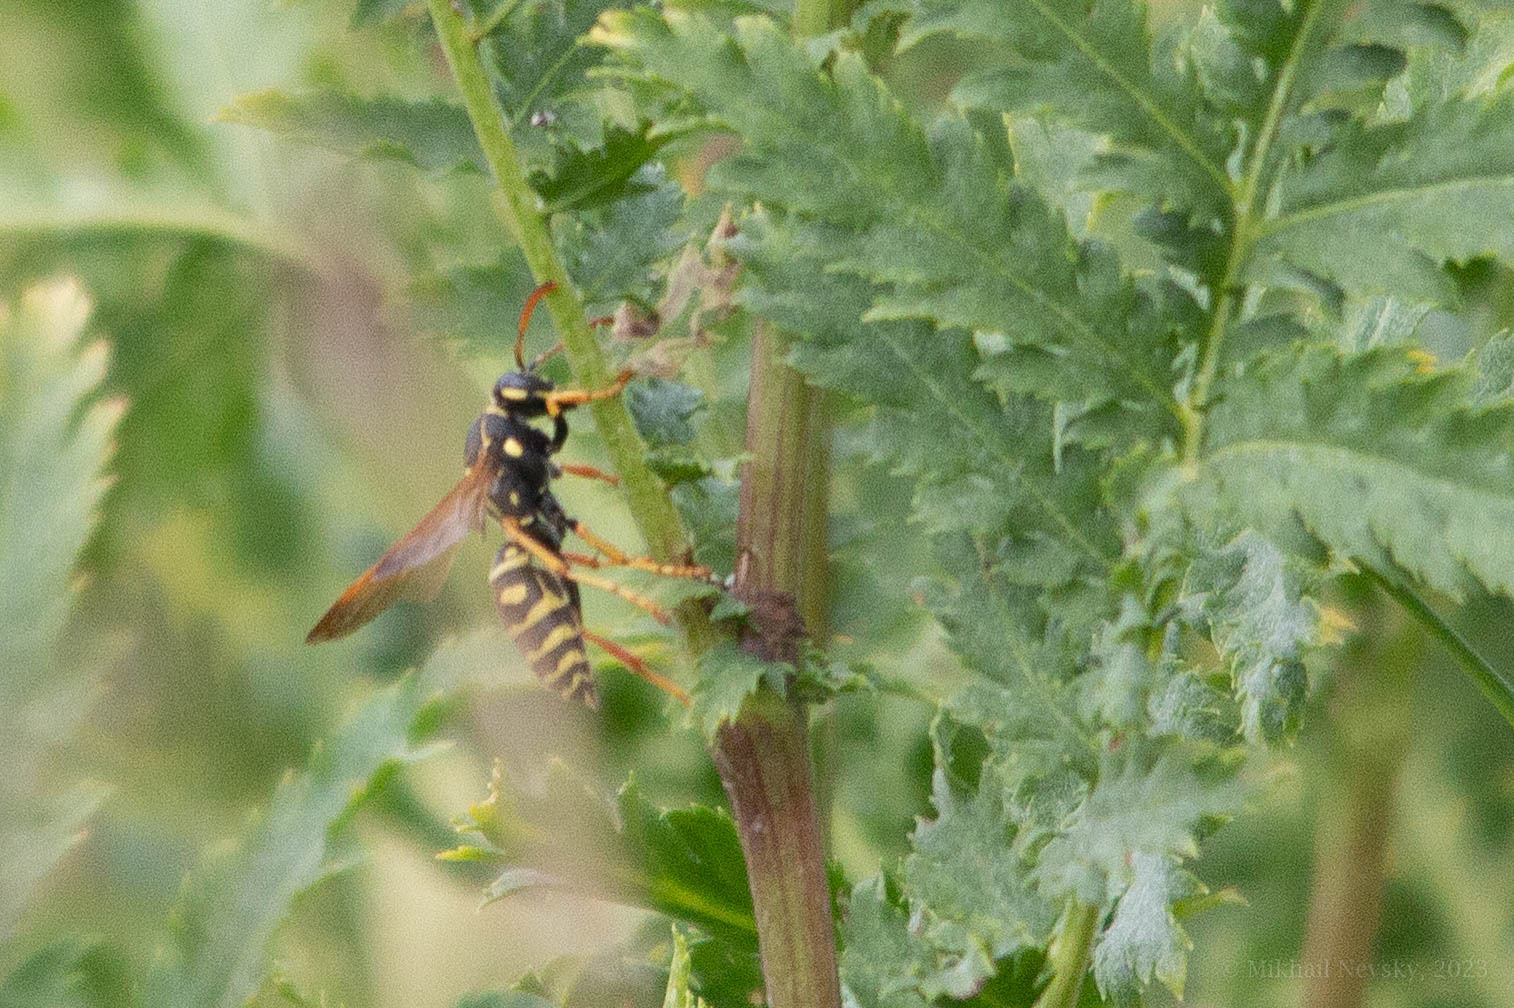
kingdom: Animalia
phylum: Arthropoda
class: Insecta
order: Hymenoptera
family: Eumenidae
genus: Polistes
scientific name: Polistes dominula
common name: Paper wasp
